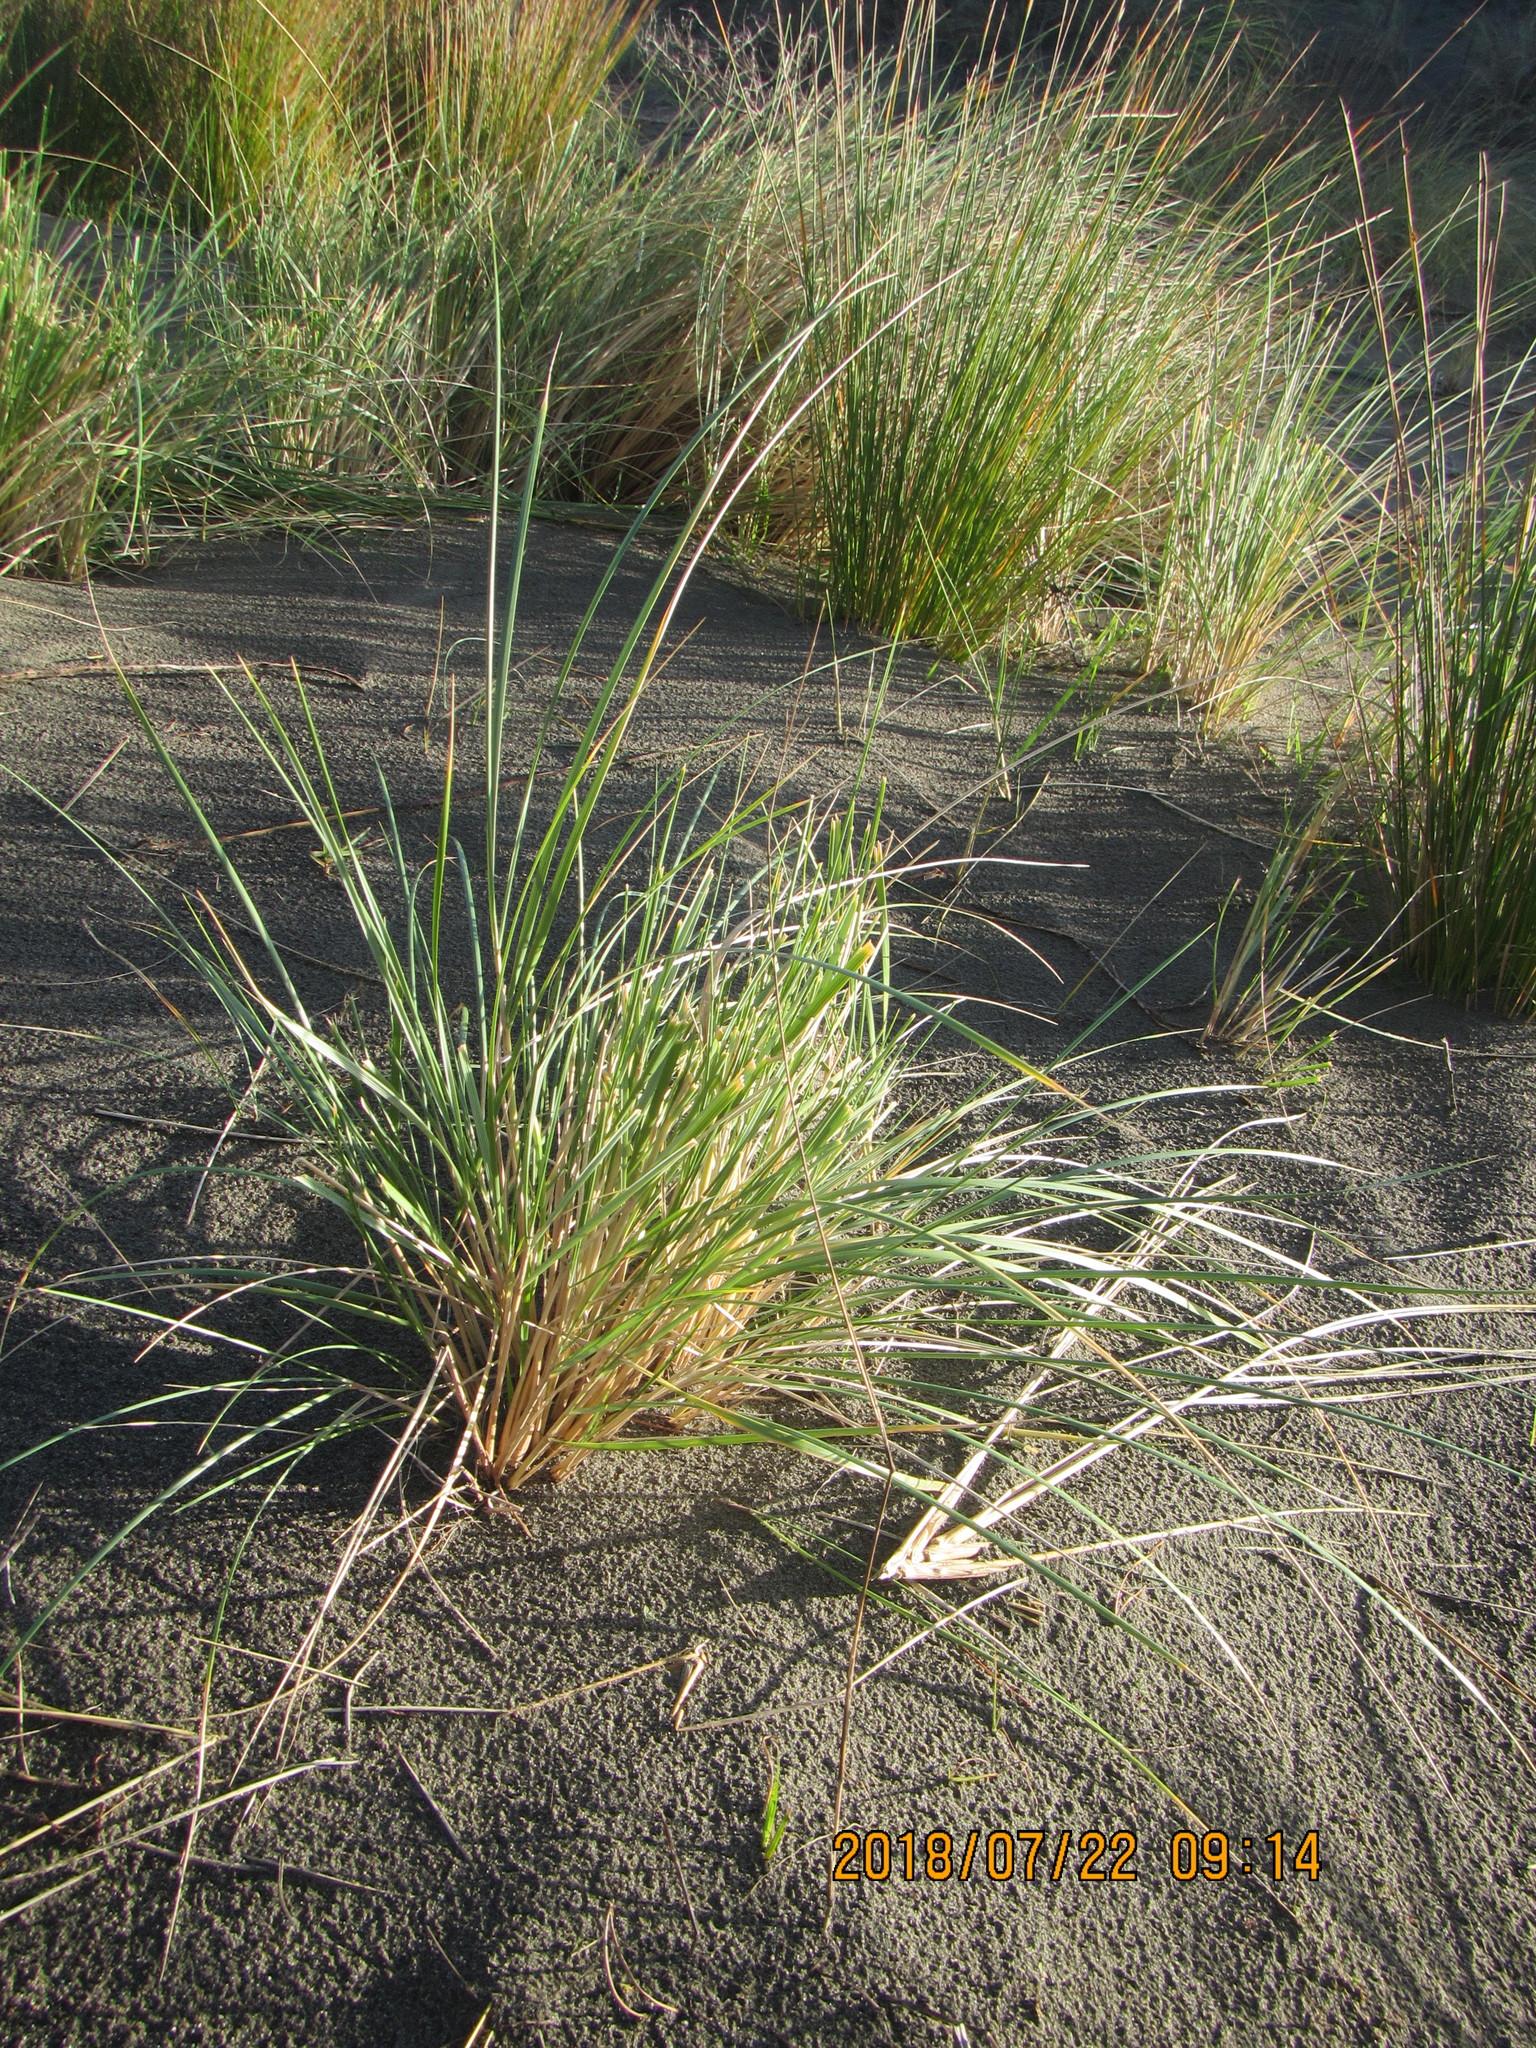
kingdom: Plantae
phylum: Tracheophyta
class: Liliopsida
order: Poales
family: Poaceae
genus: Calamagrostis
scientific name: Calamagrostis arenaria
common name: European beachgrass
